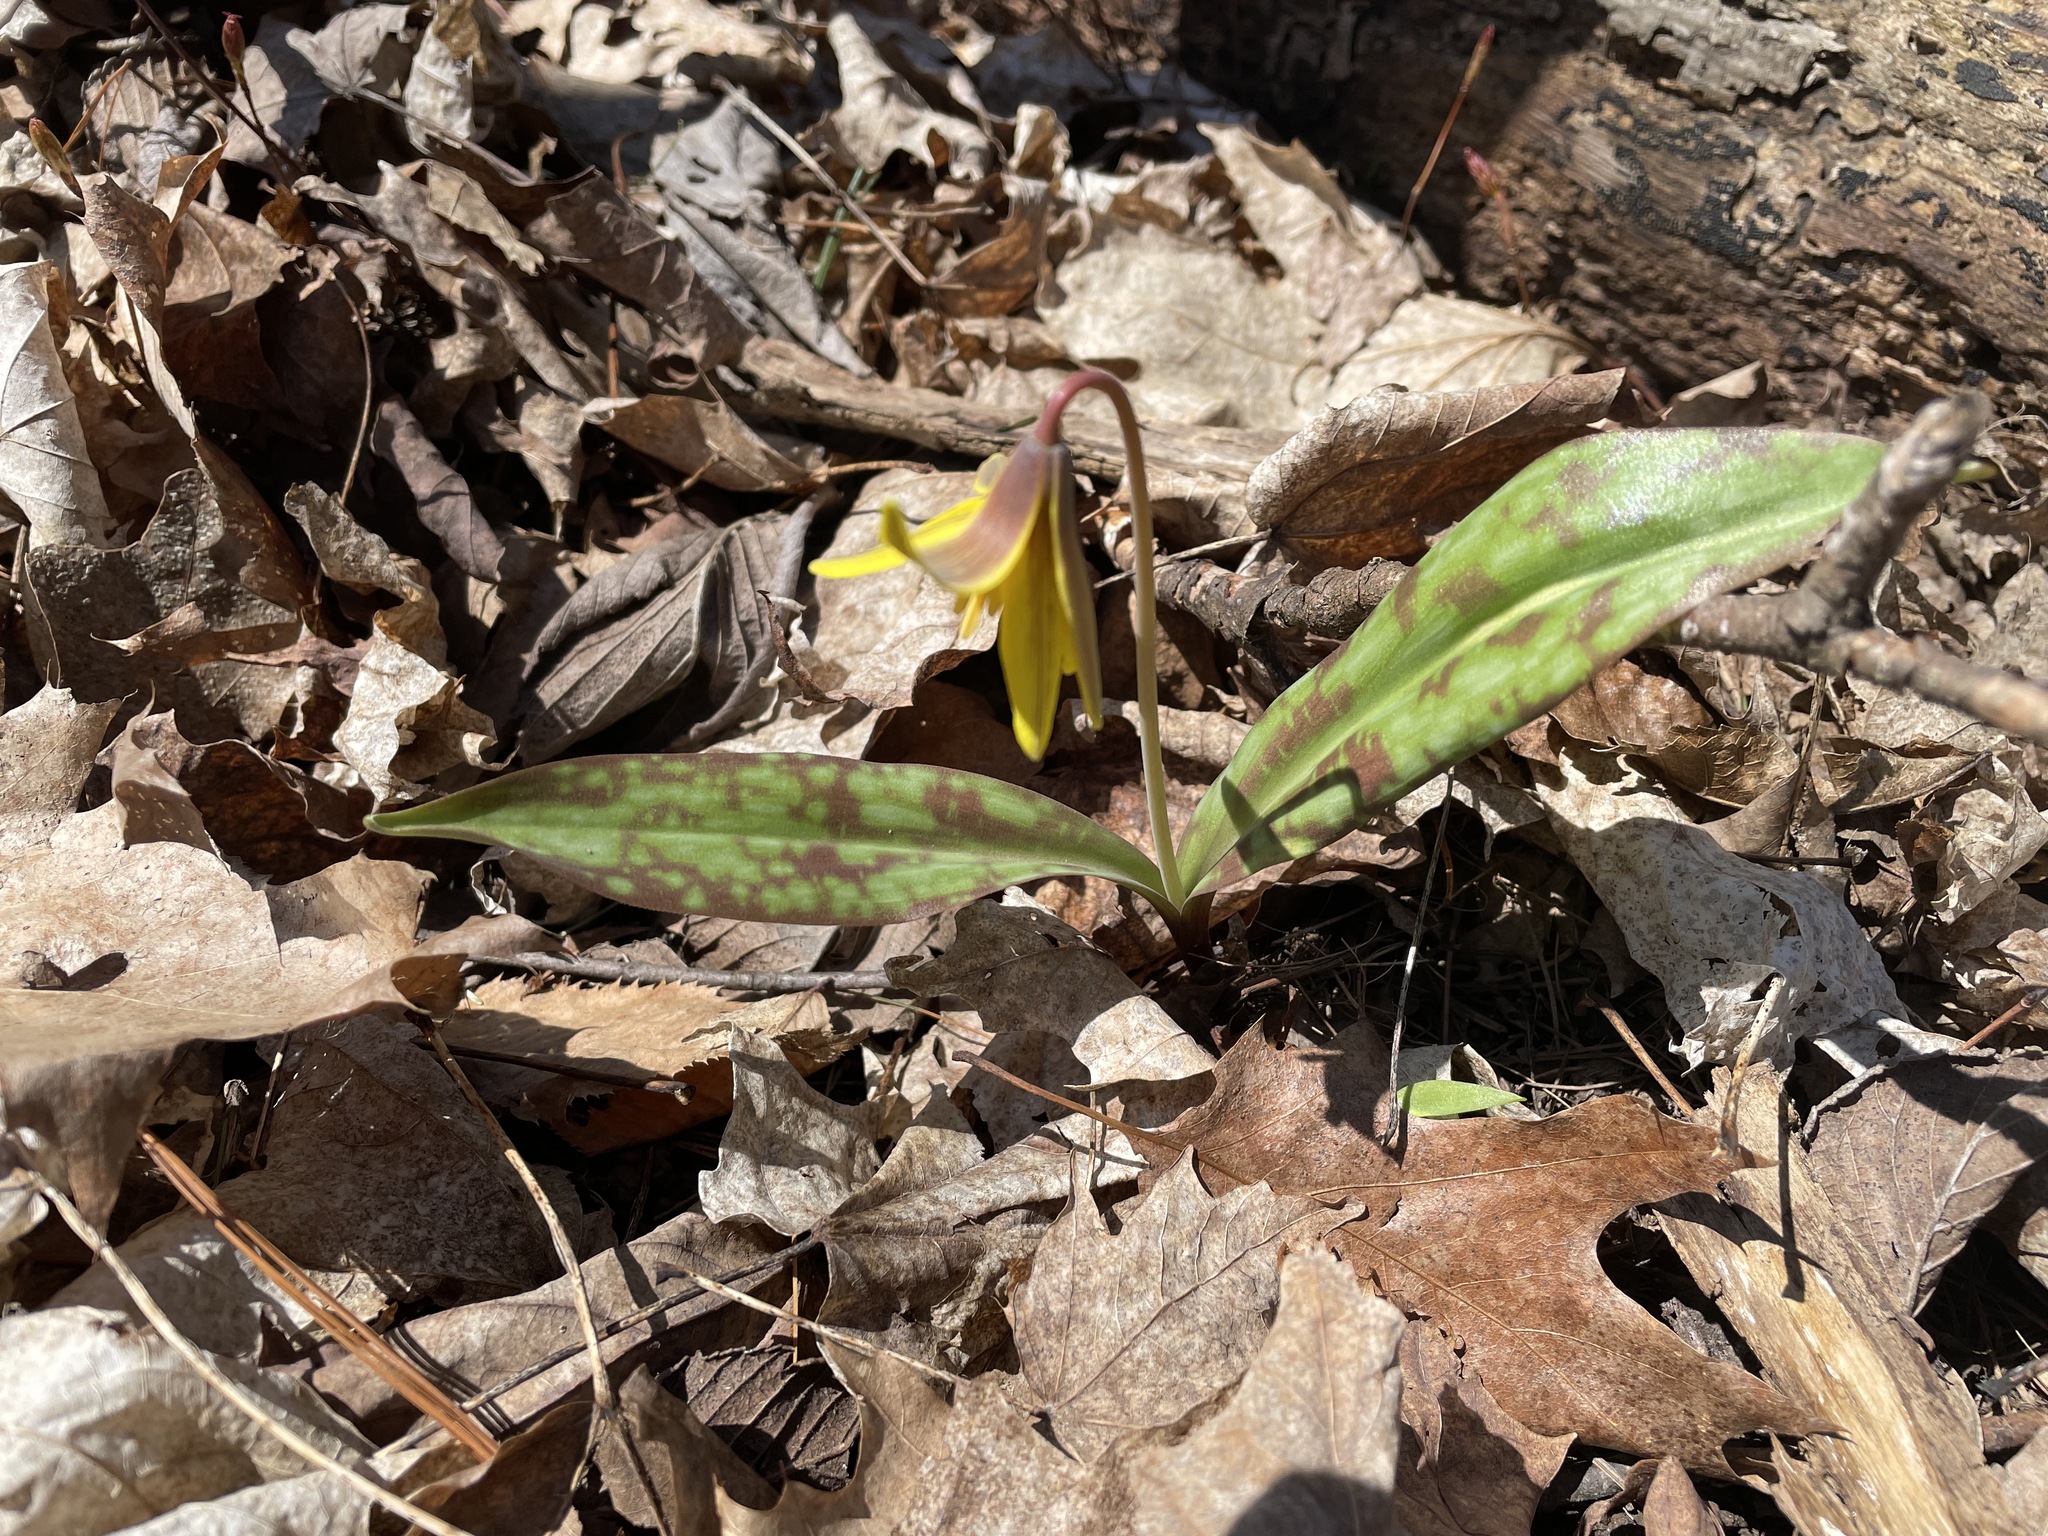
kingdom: Plantae
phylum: Tracheophyta
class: Liliopsida
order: Liliales
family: Liliaceae
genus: Erythronium
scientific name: Erythronium americanum
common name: Yellow adder's-tongue
